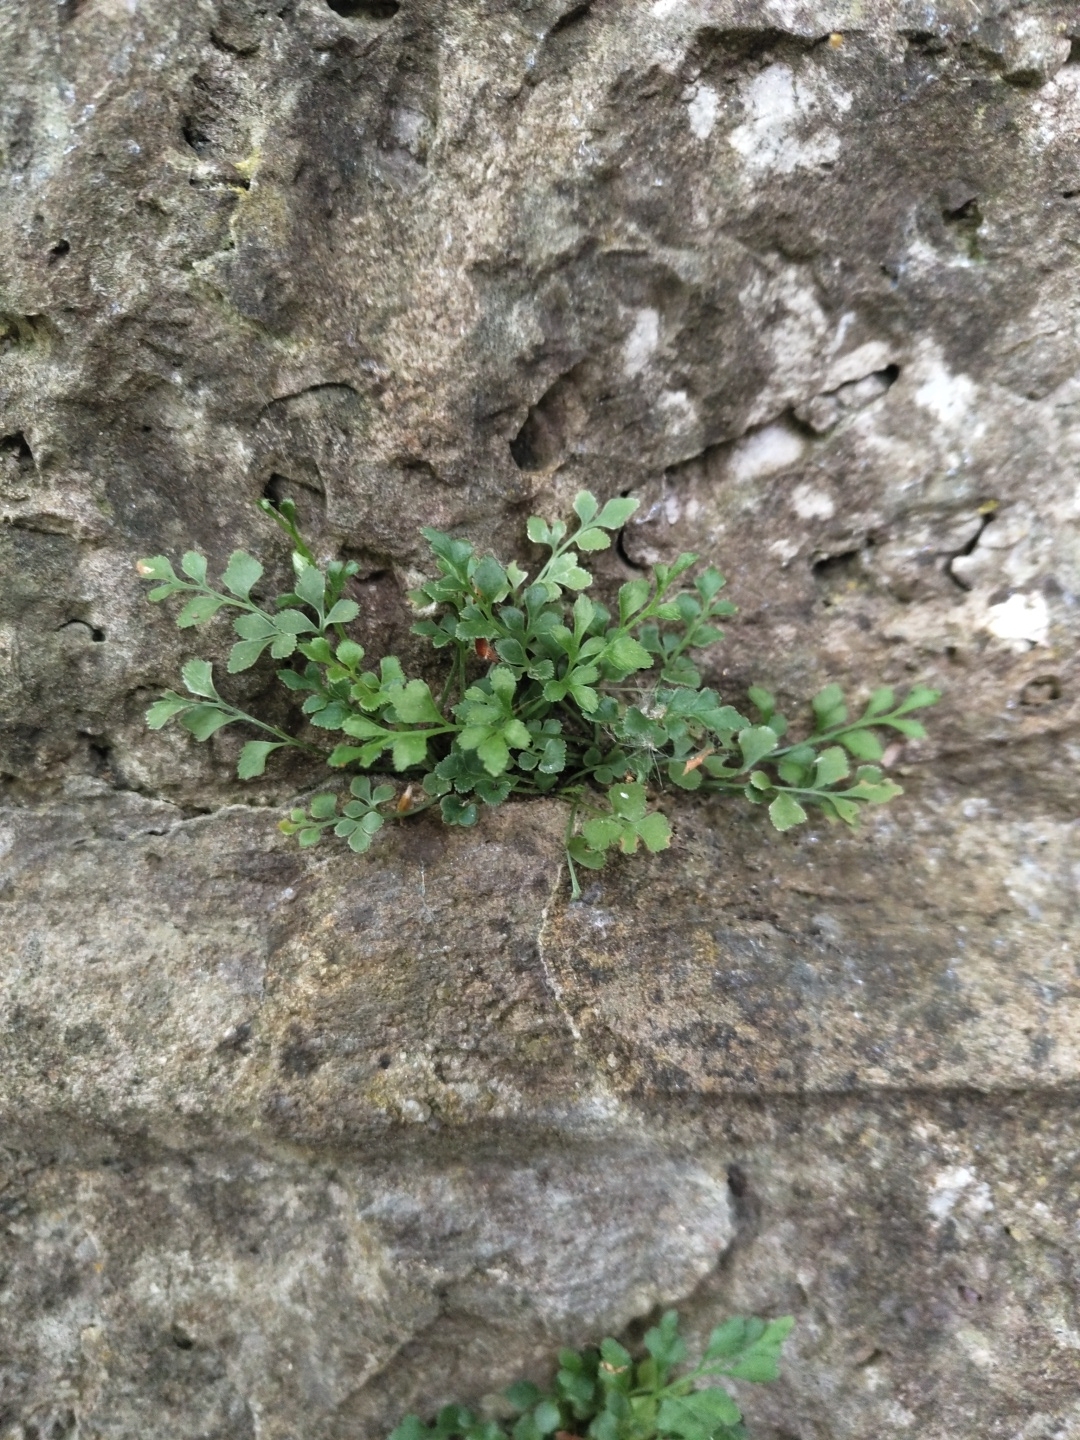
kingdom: Plantae
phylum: Tracheophyta
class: Polypodiopsida
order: Polypodiales
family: Aspleniaceae
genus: Asplenium
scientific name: Asplenium ruta-muraria
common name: Wall-rue
